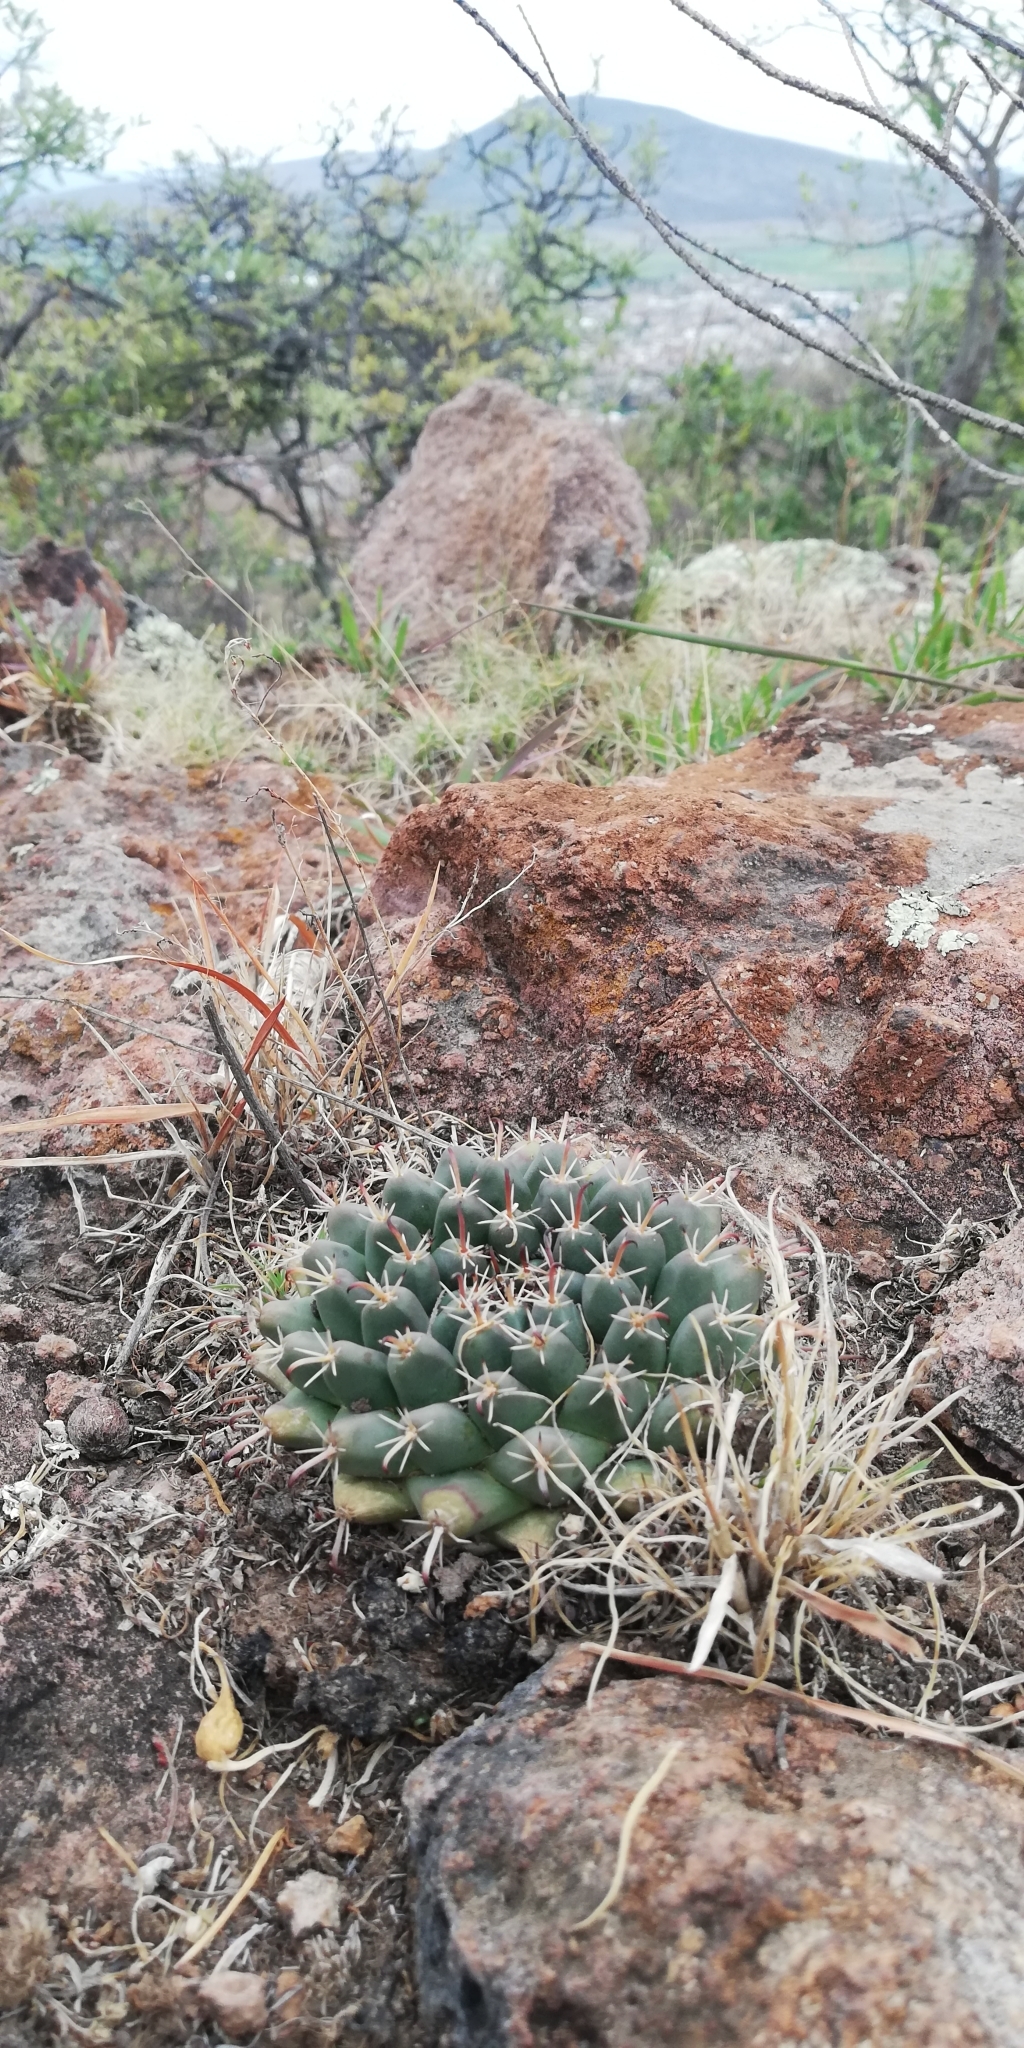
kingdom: Plantae
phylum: Tracheophyta
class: Magnoliopsida
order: Caryophyllales
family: Cactaceae
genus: Mammillaria
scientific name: Mammillaria uncinata
